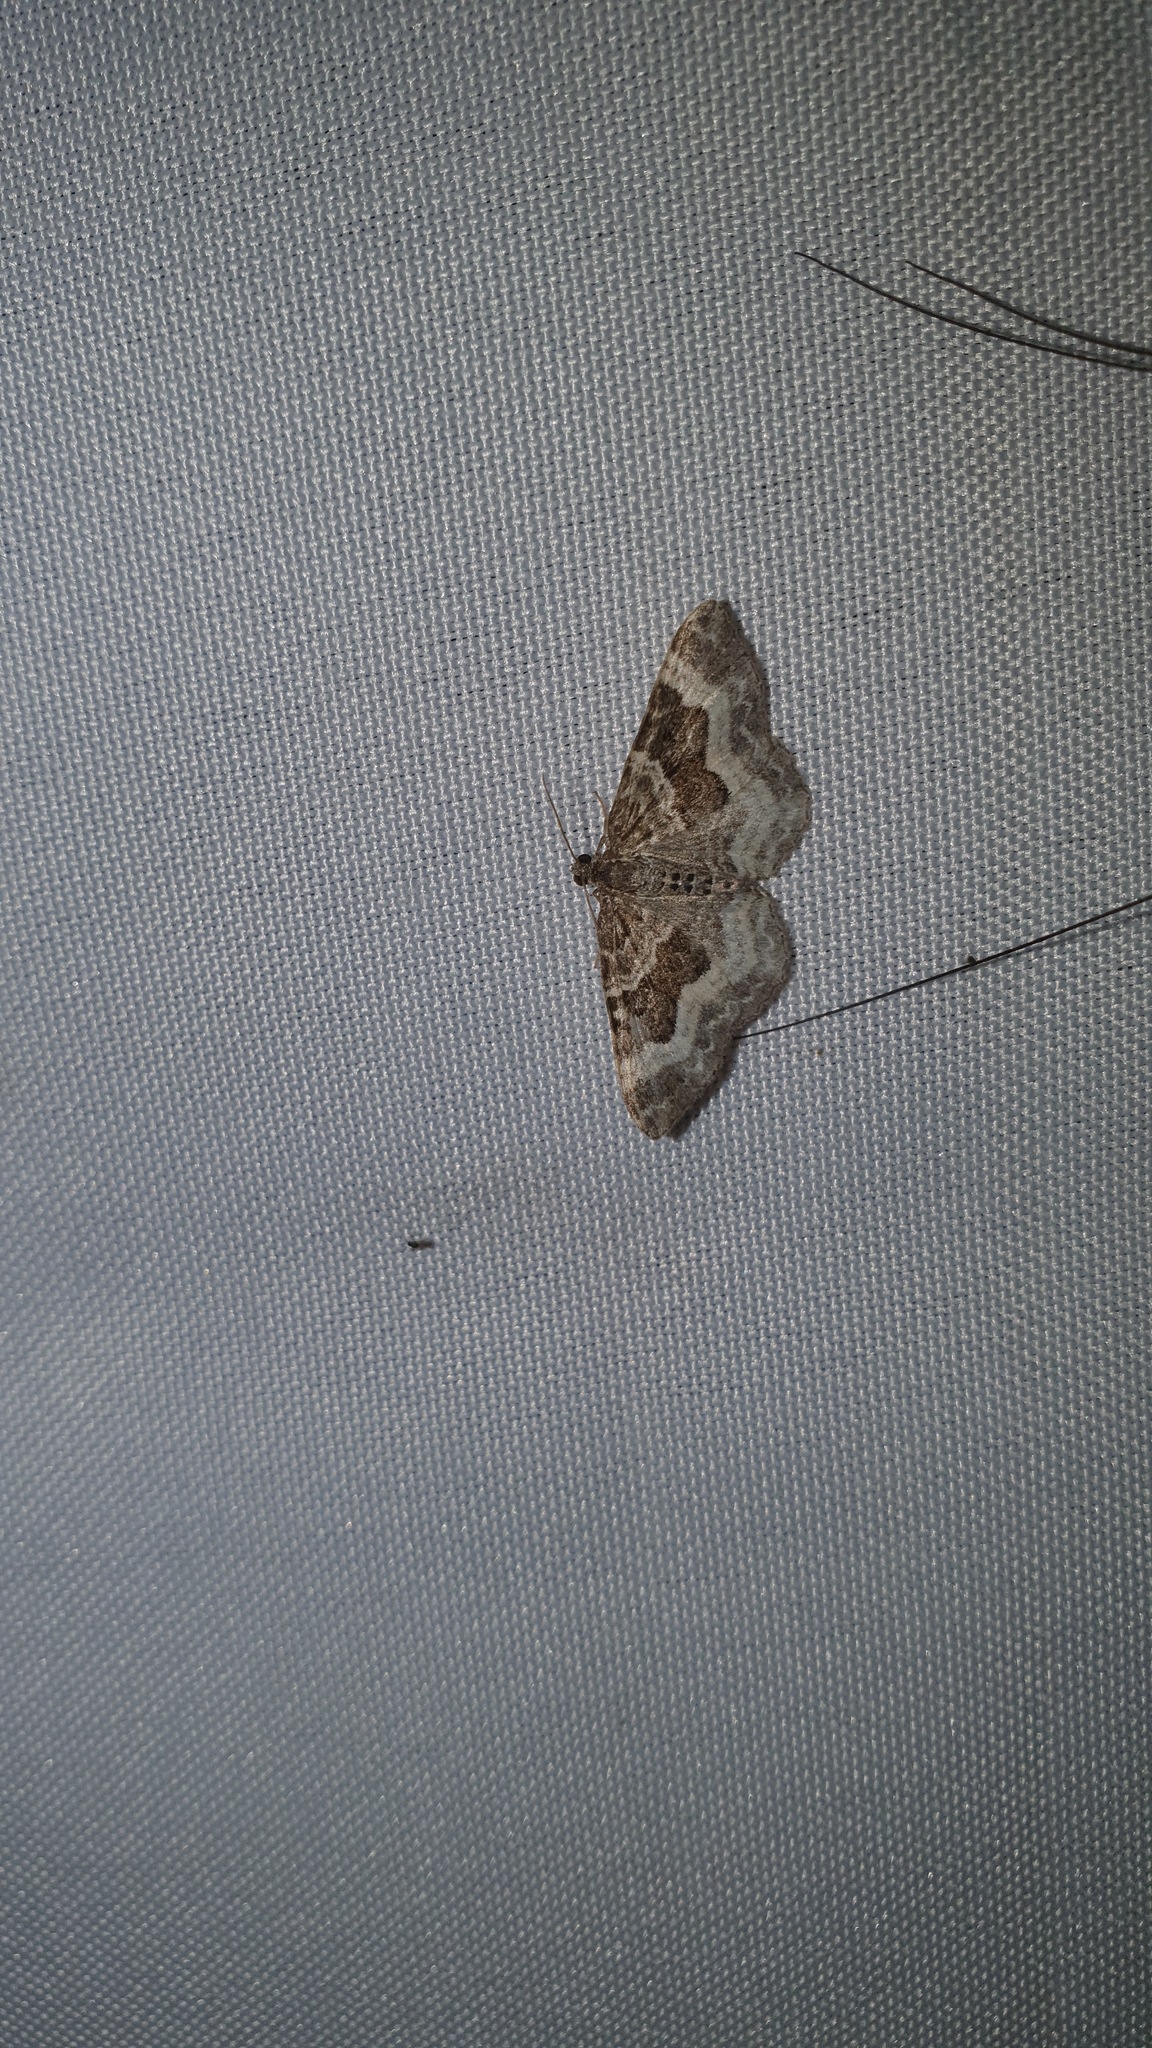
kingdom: Animalia
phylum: Arthropoda
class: Insecta
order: Lepidoptera
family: Geometridae
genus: Epirrhoe
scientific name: Epirrhoe alternata
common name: Common carpet
